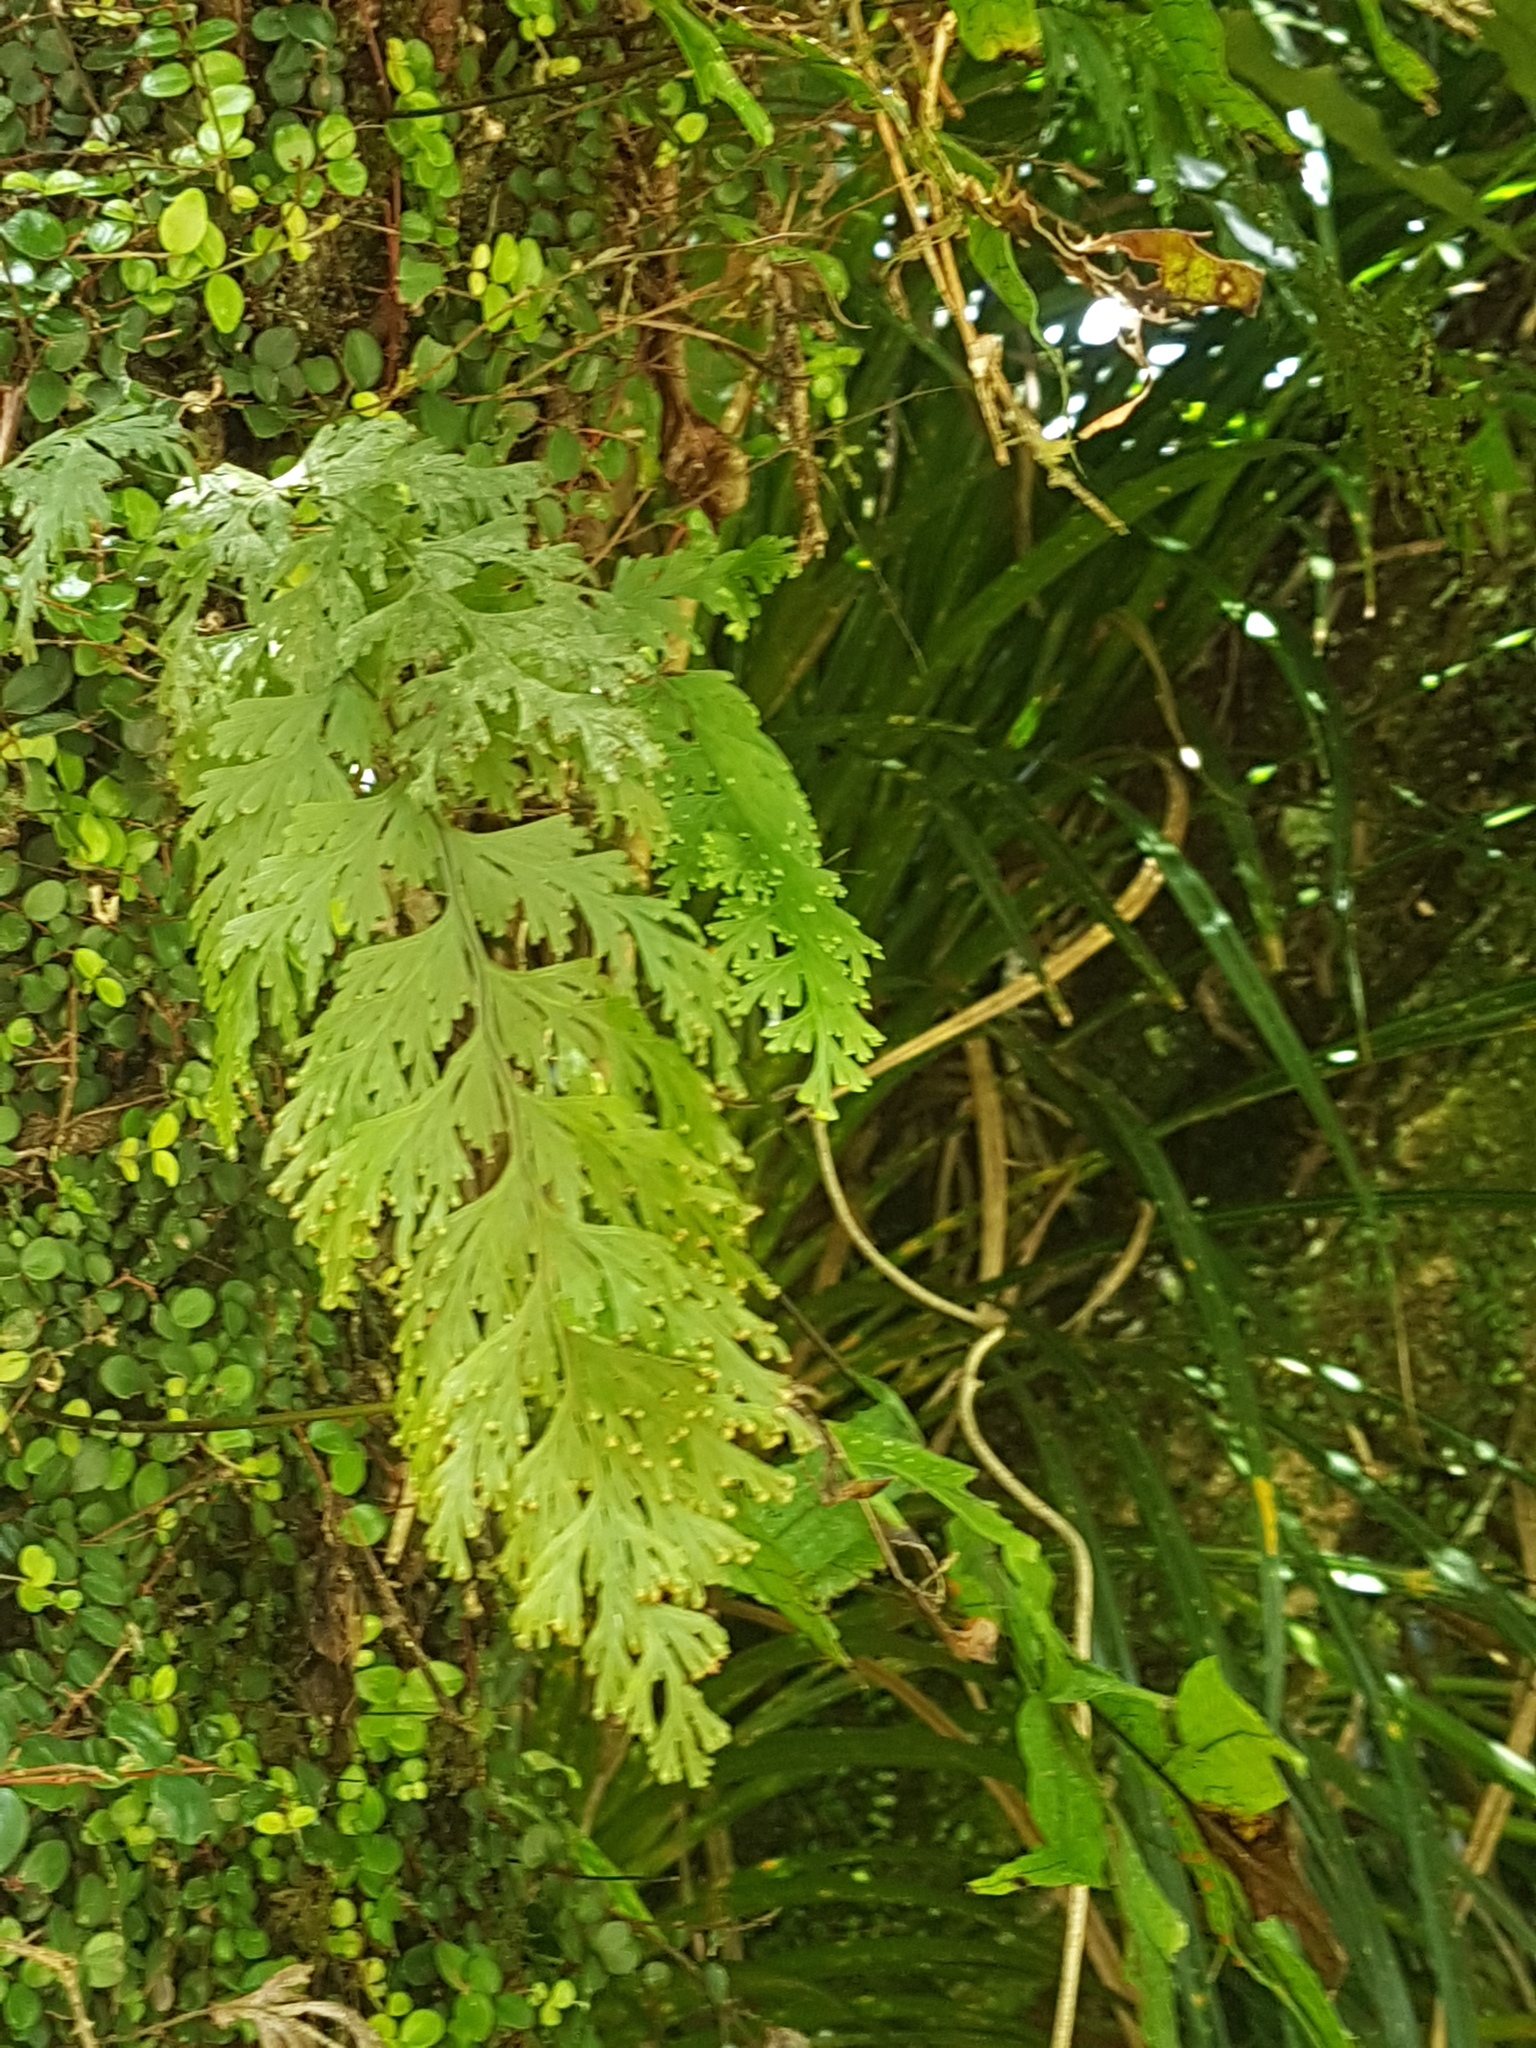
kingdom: Plantae
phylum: Tracheophyta
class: Polypodiopsida
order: Hymenophyllales
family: Hymenophyllaceae
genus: Hymenophyllum
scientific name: Hymenophyllum dilatatum
